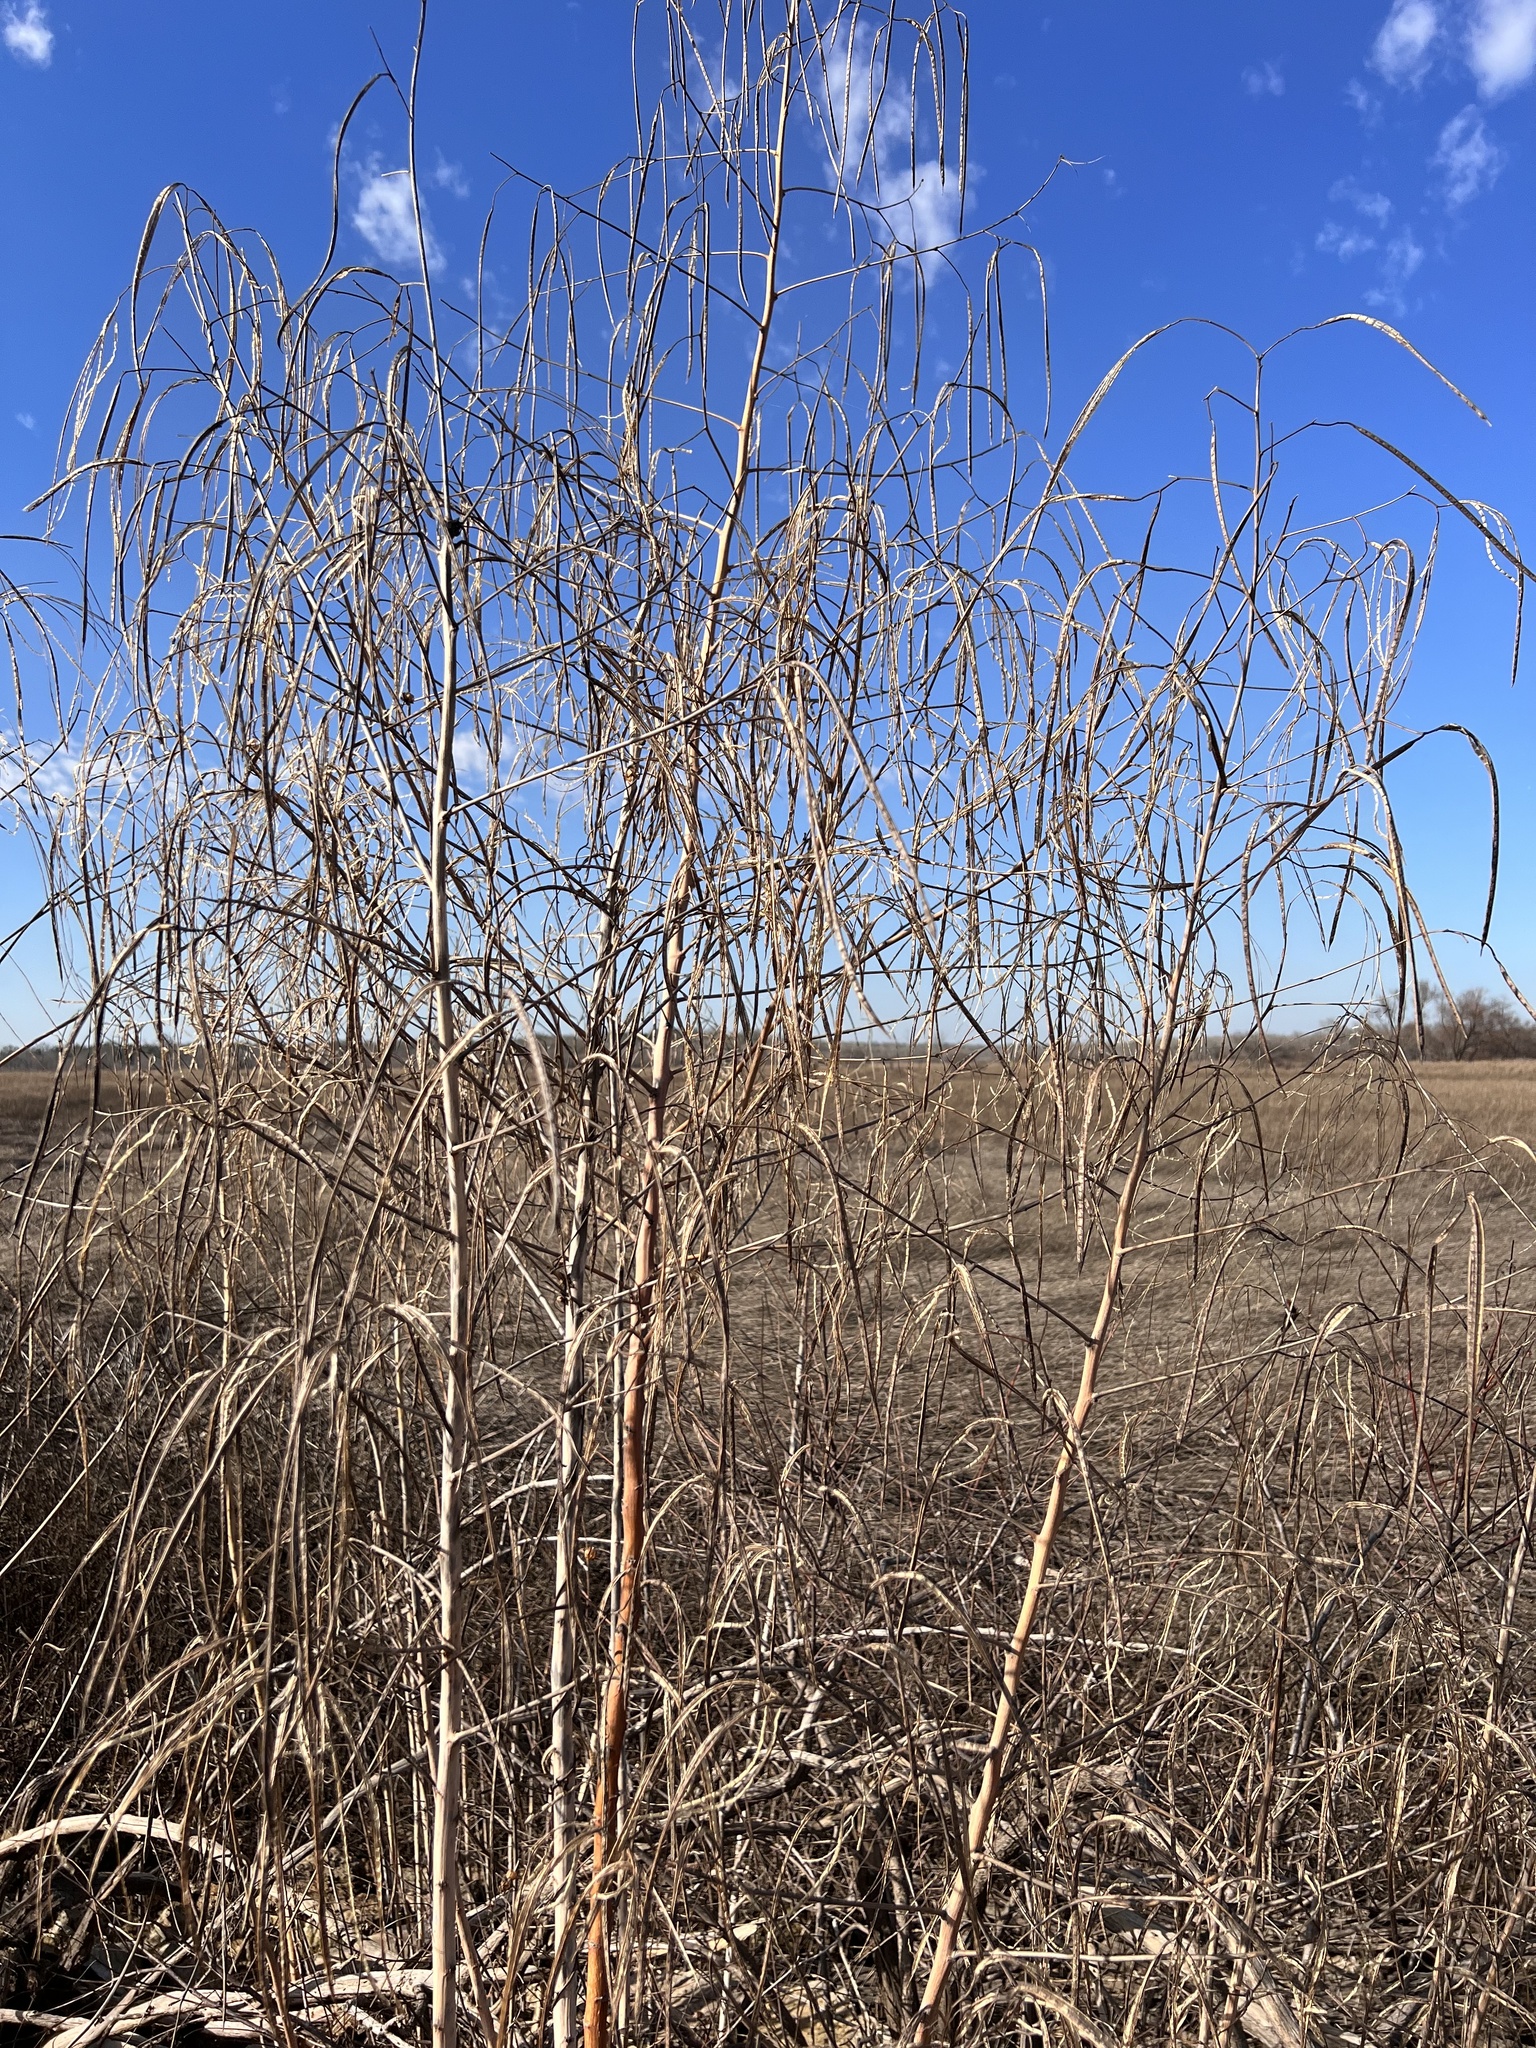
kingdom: Plantae
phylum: Tracheophyta
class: Magnoliopsida
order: Fabales
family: Fabaceae
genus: Sesbania
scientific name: Sesbania herbacea
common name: Bigpod sesbania
